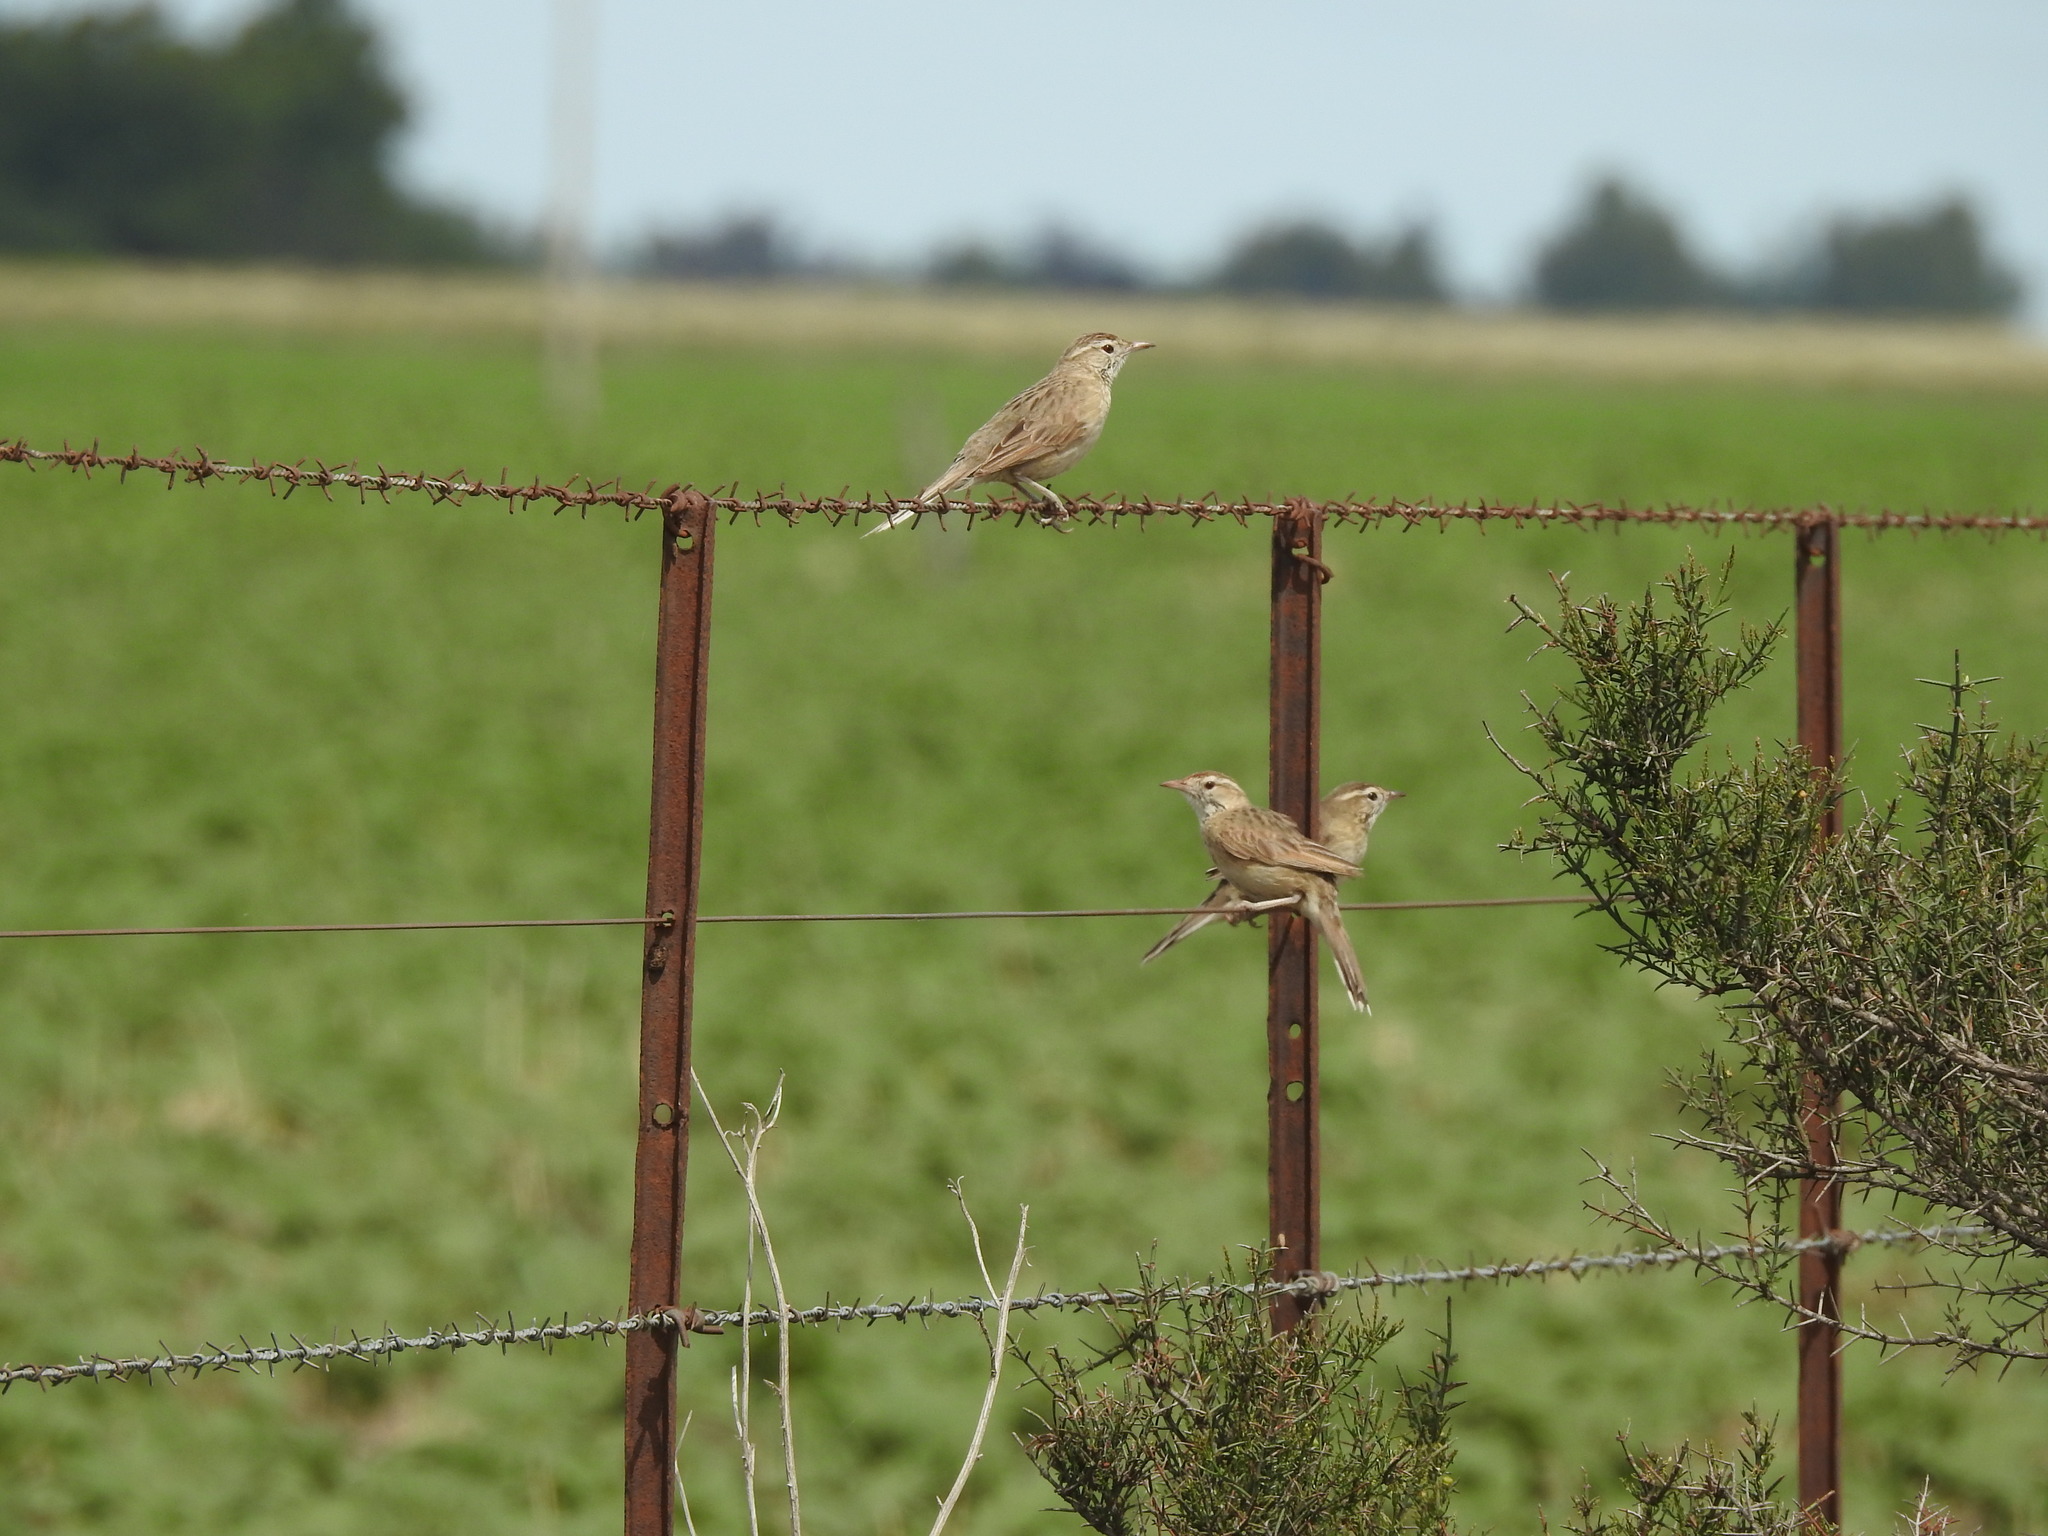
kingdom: Animalia
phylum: Chordata
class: Aves
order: Passeriformes
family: Furnariidae
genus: Anumbius
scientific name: Anumbius annumbi
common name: Firewood-gatherer
